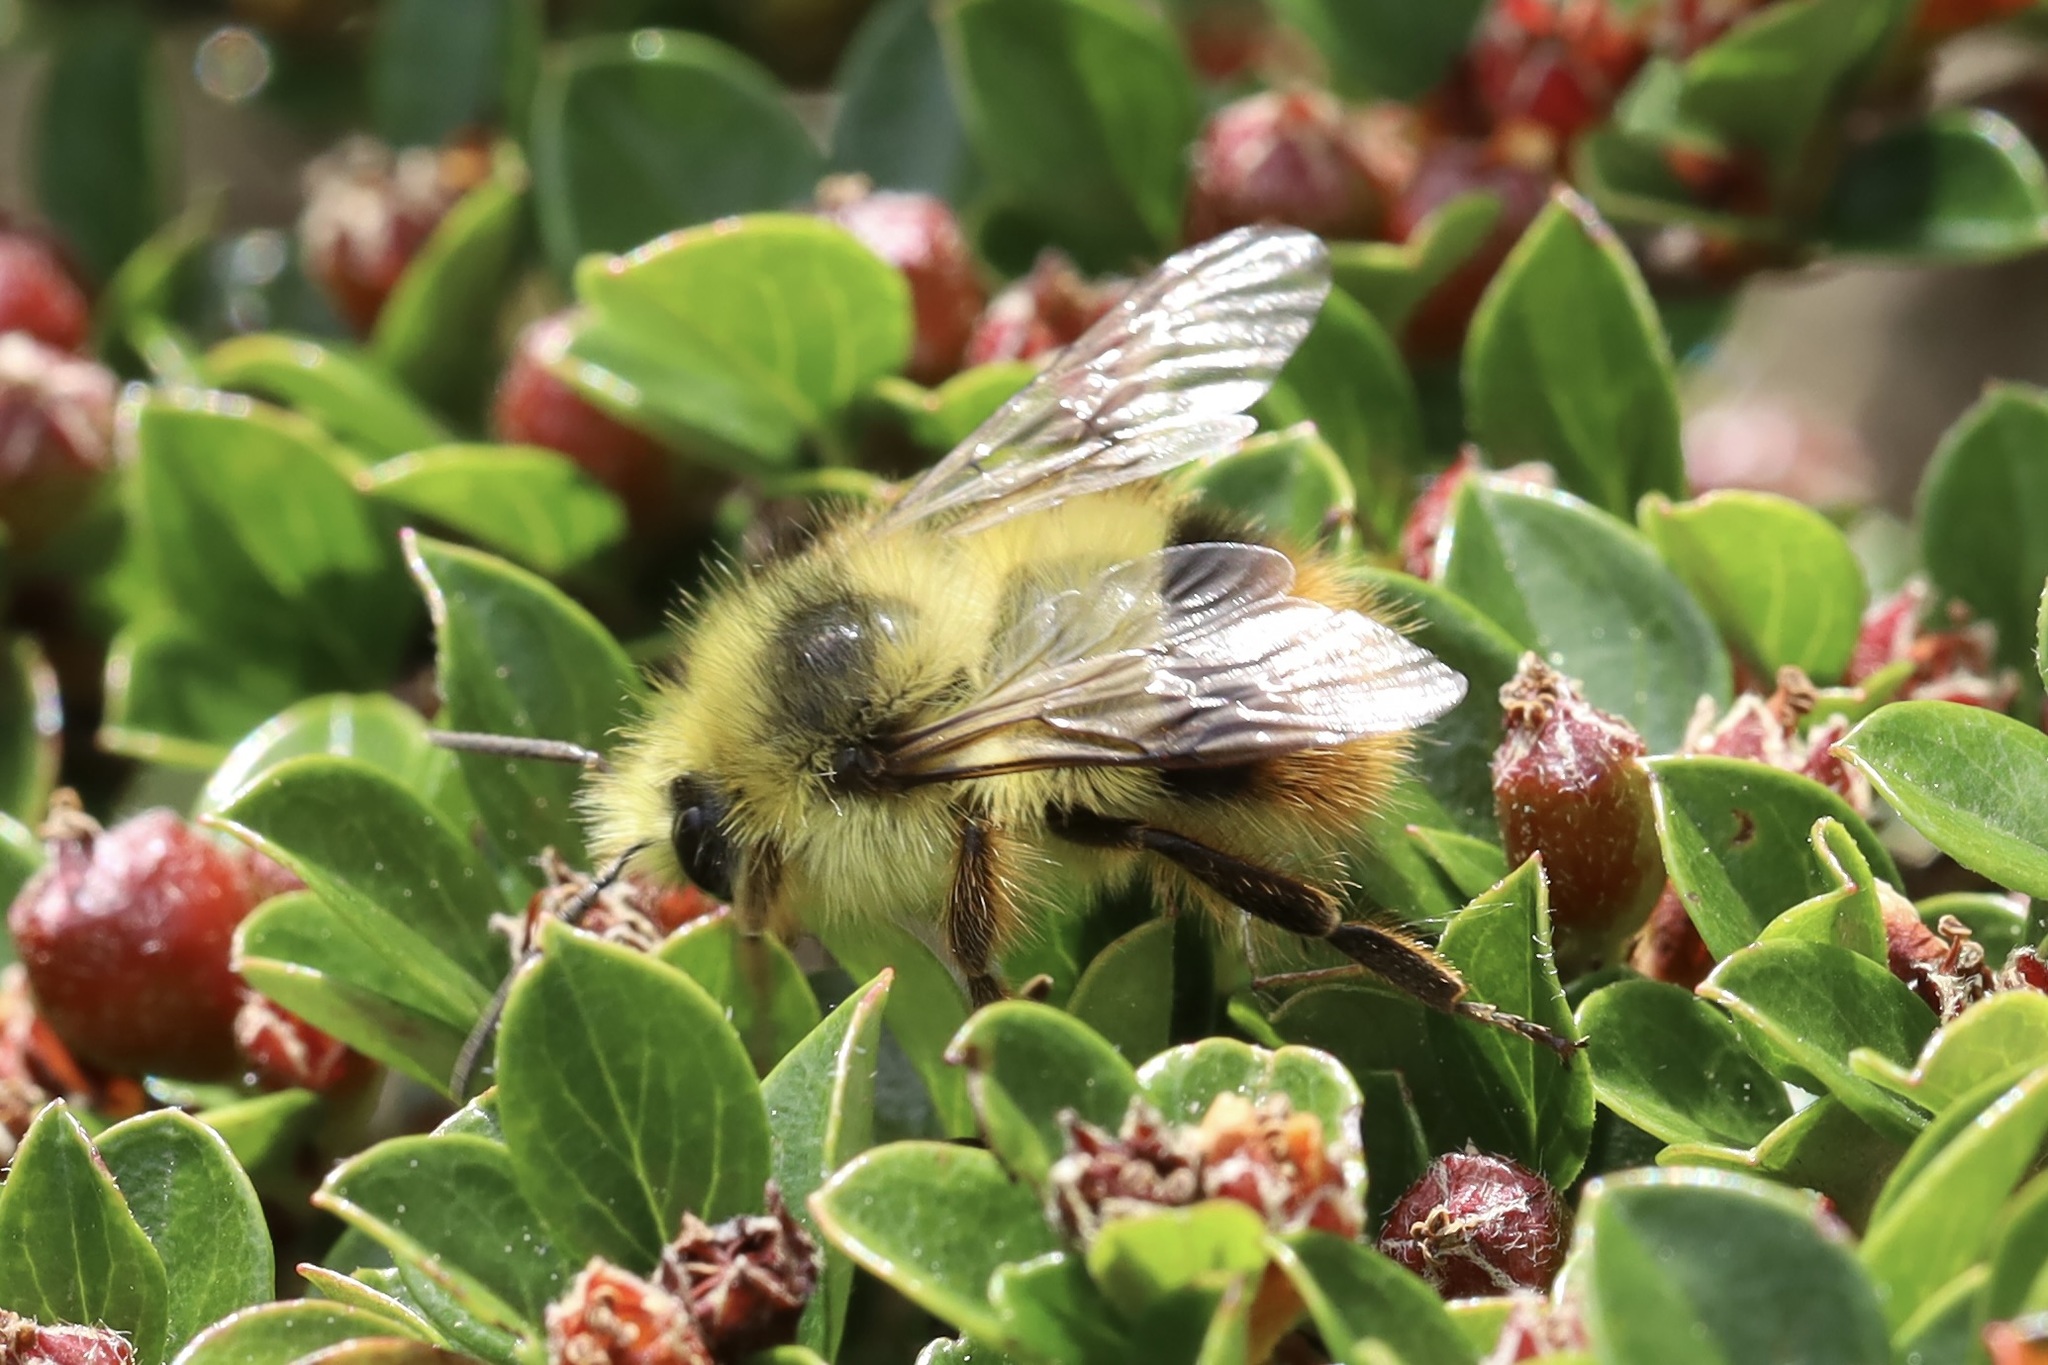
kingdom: Animalia
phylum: Arthropoda
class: Insecta
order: Hymenoptera
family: Apidae
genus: Bombus
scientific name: Bombus mixtus
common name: Fuzzy-horned bumble bee
